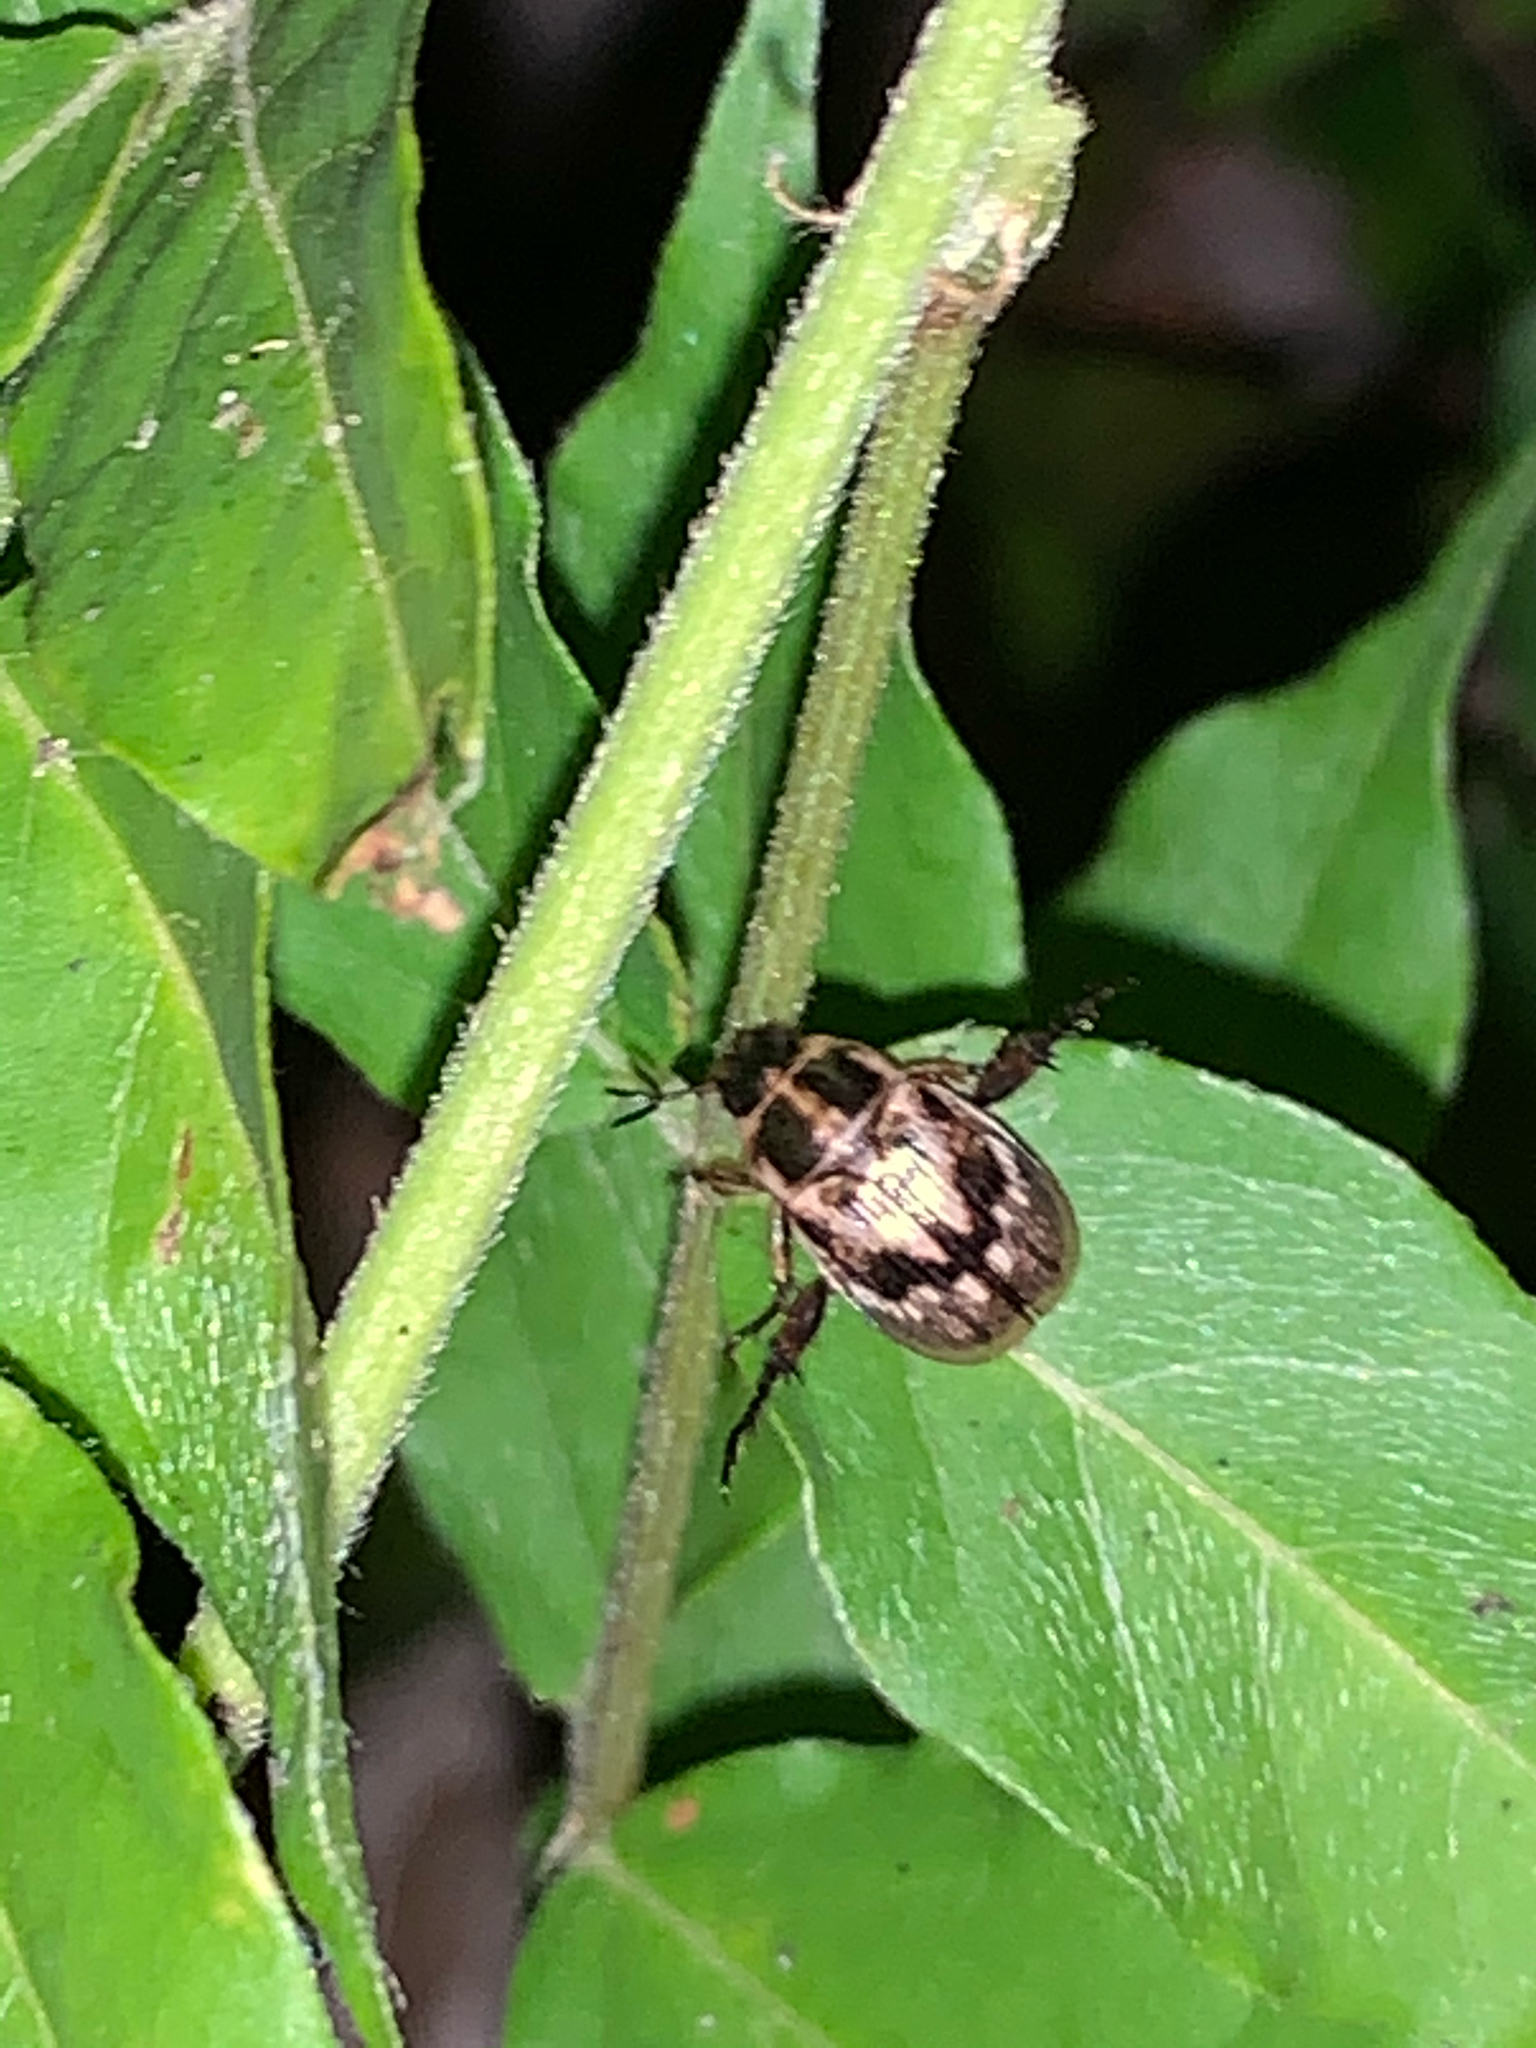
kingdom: Animalia
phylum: Arthropoda
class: Insecta
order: Coleoptera
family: Scarabaeidae
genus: Exomala
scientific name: Exomala orientalis
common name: Oriental beetle
